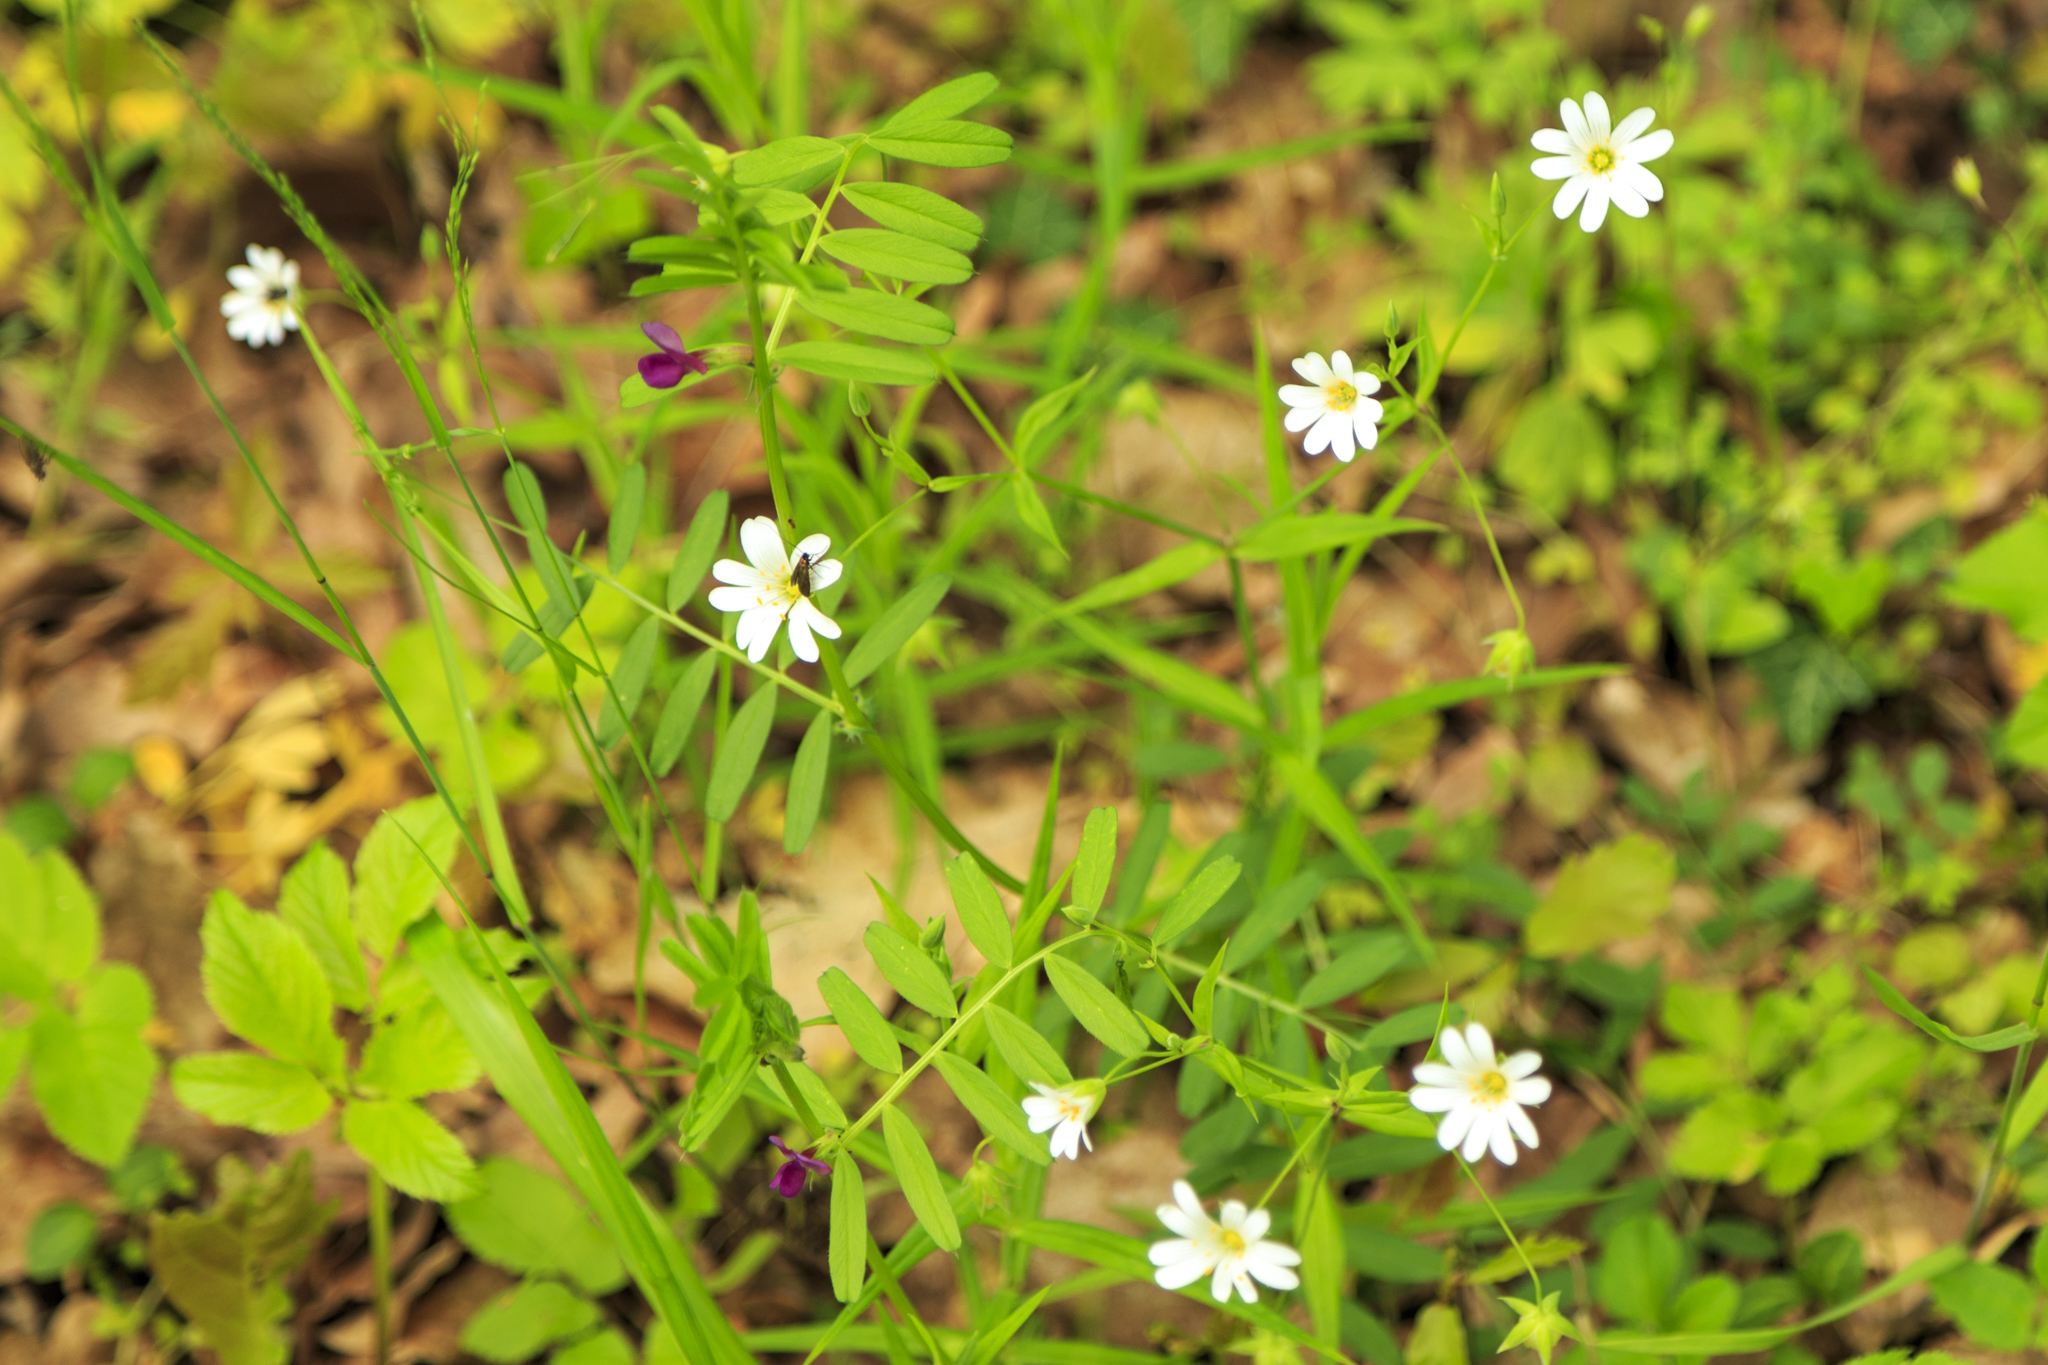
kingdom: Plantae
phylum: Tracheophyta
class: Magnoliopsida
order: Caryophyllales
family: Caryophyllaceae
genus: Rabelera
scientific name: Rabelera holostea
